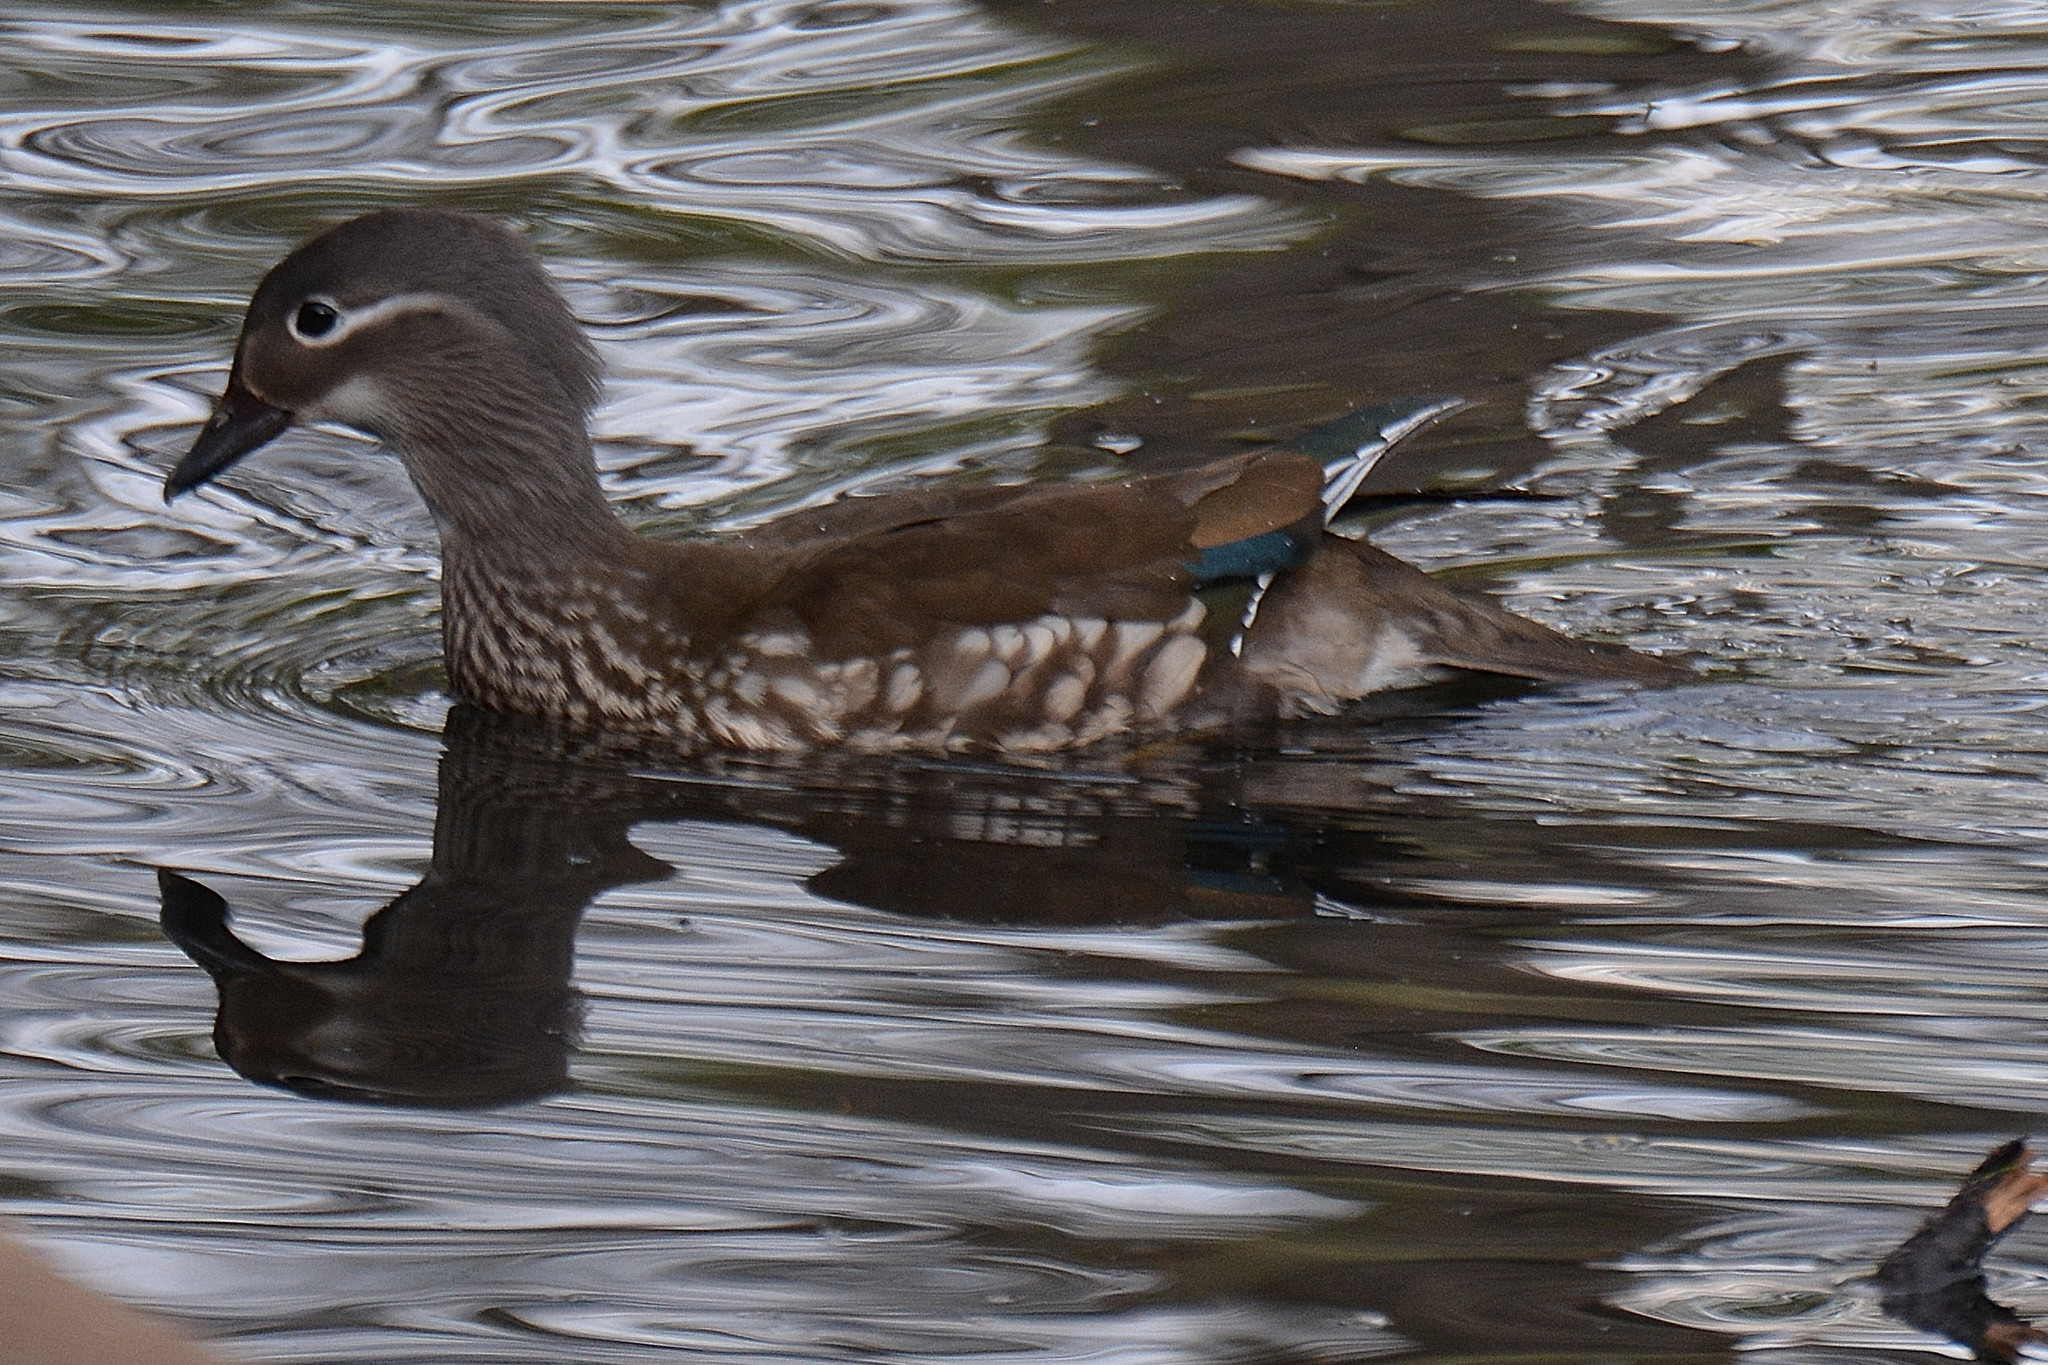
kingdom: Animalia
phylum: Chordata
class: Aves
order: Anseriformes
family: Anatidae
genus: Aix
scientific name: Aix galericulata
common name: Mandarin duck
